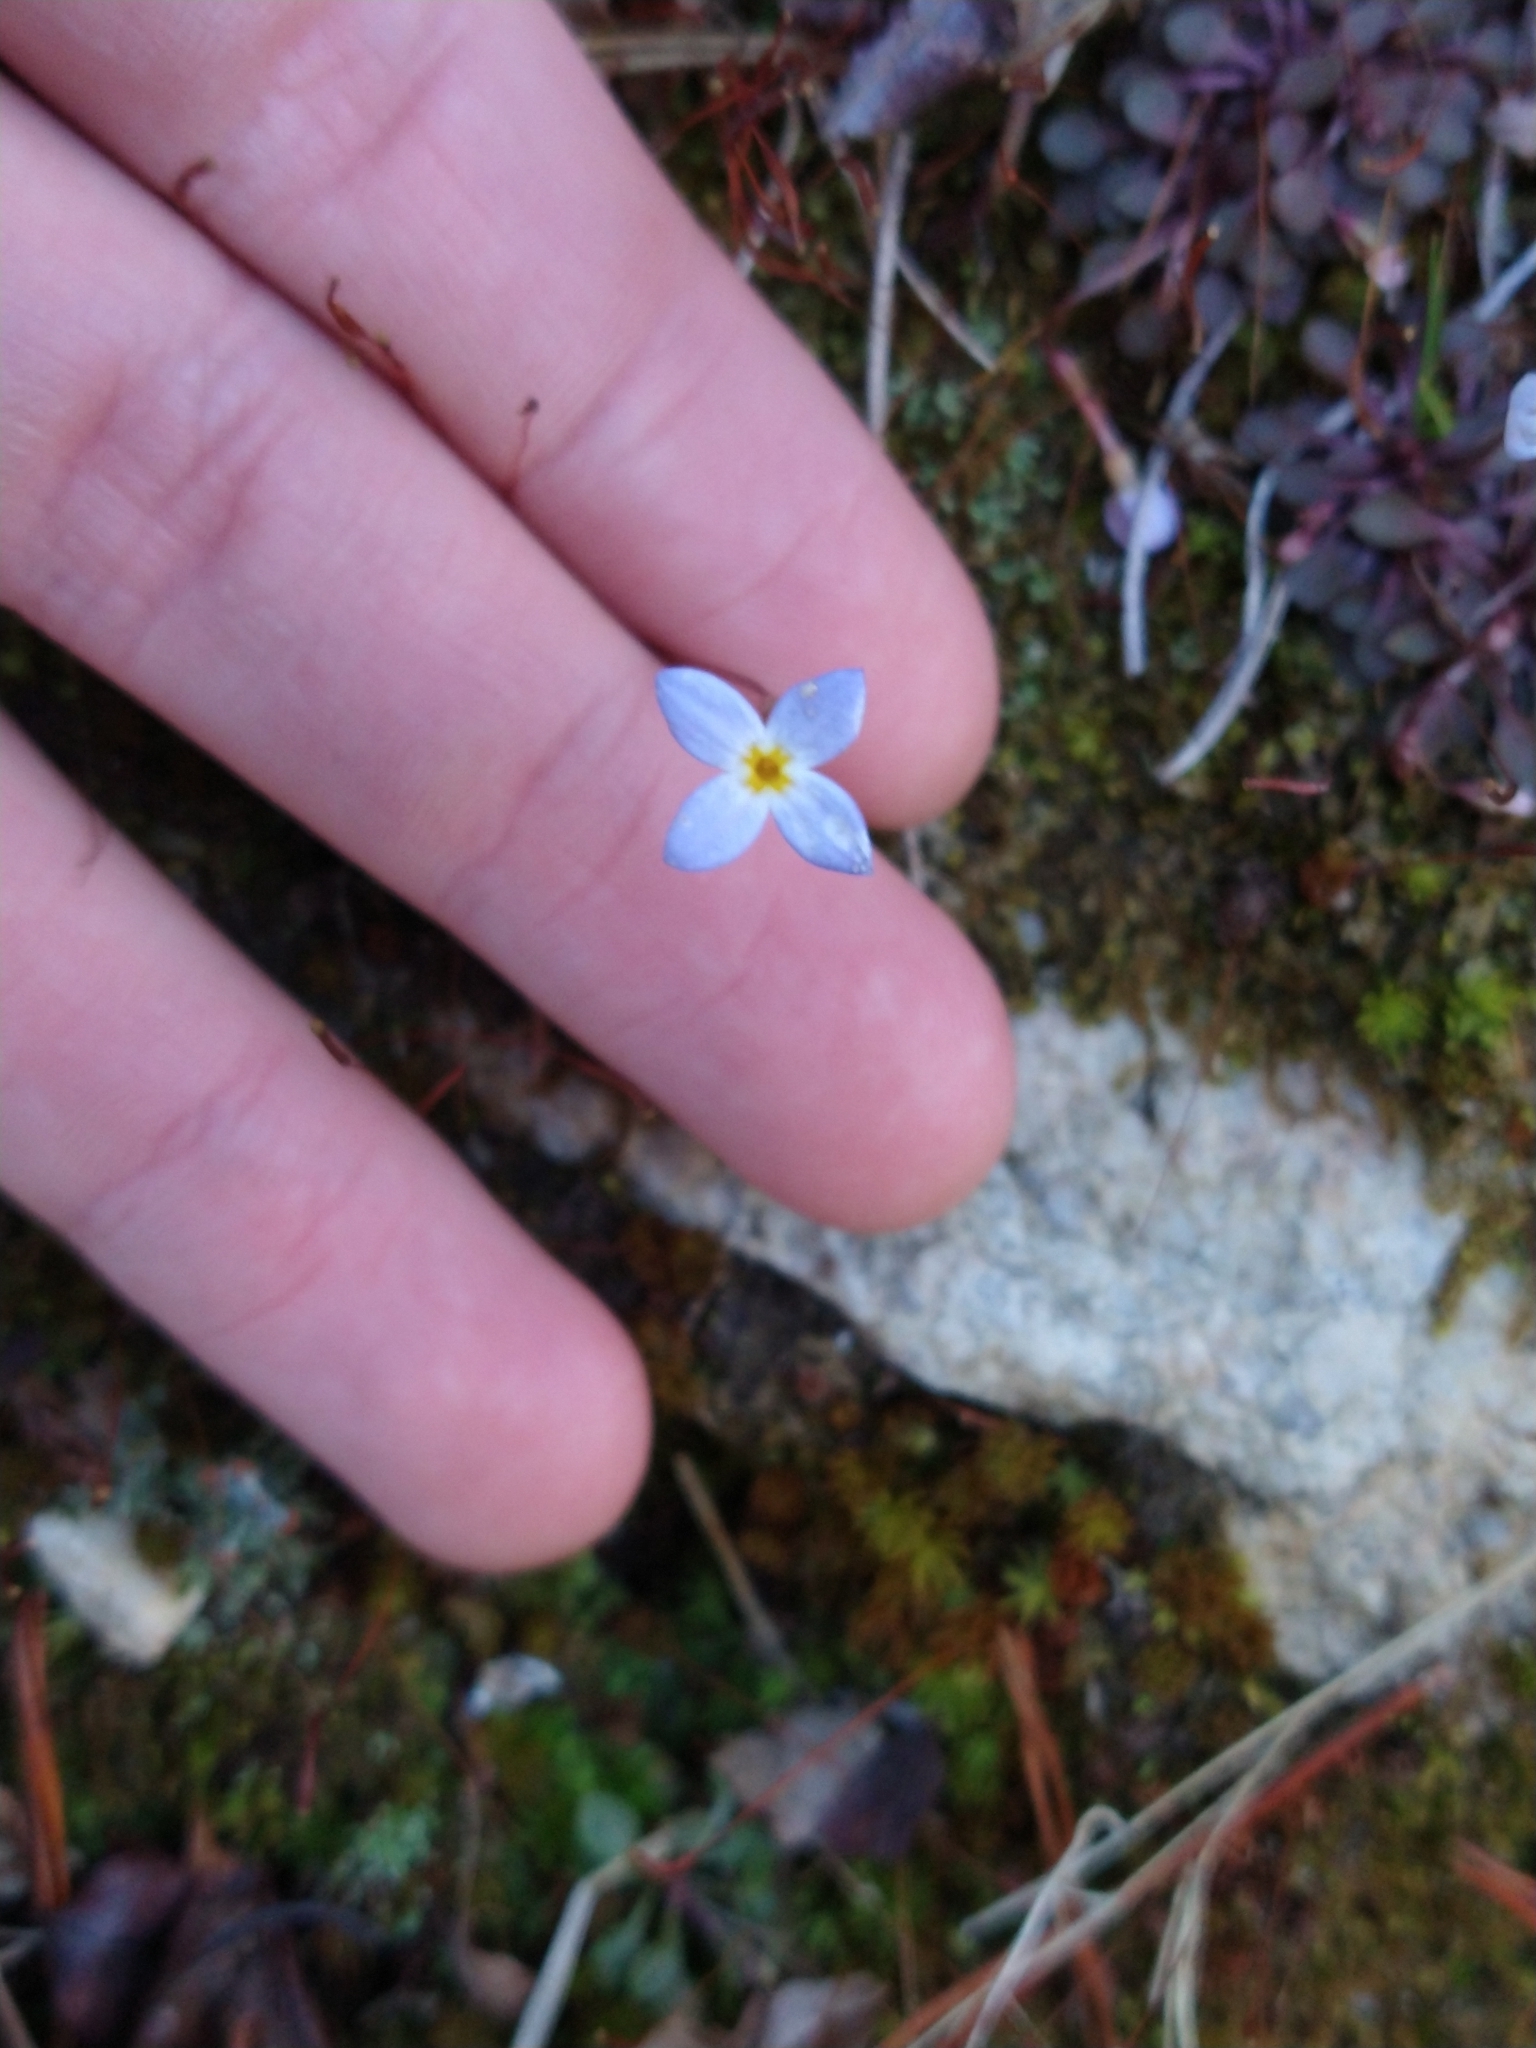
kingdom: Plantae
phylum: Tracheophyta
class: Magnoliopsida
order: Gentianales
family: Rubiaceae
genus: Houstonia
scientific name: Houstonia caerulea
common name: Bluets
